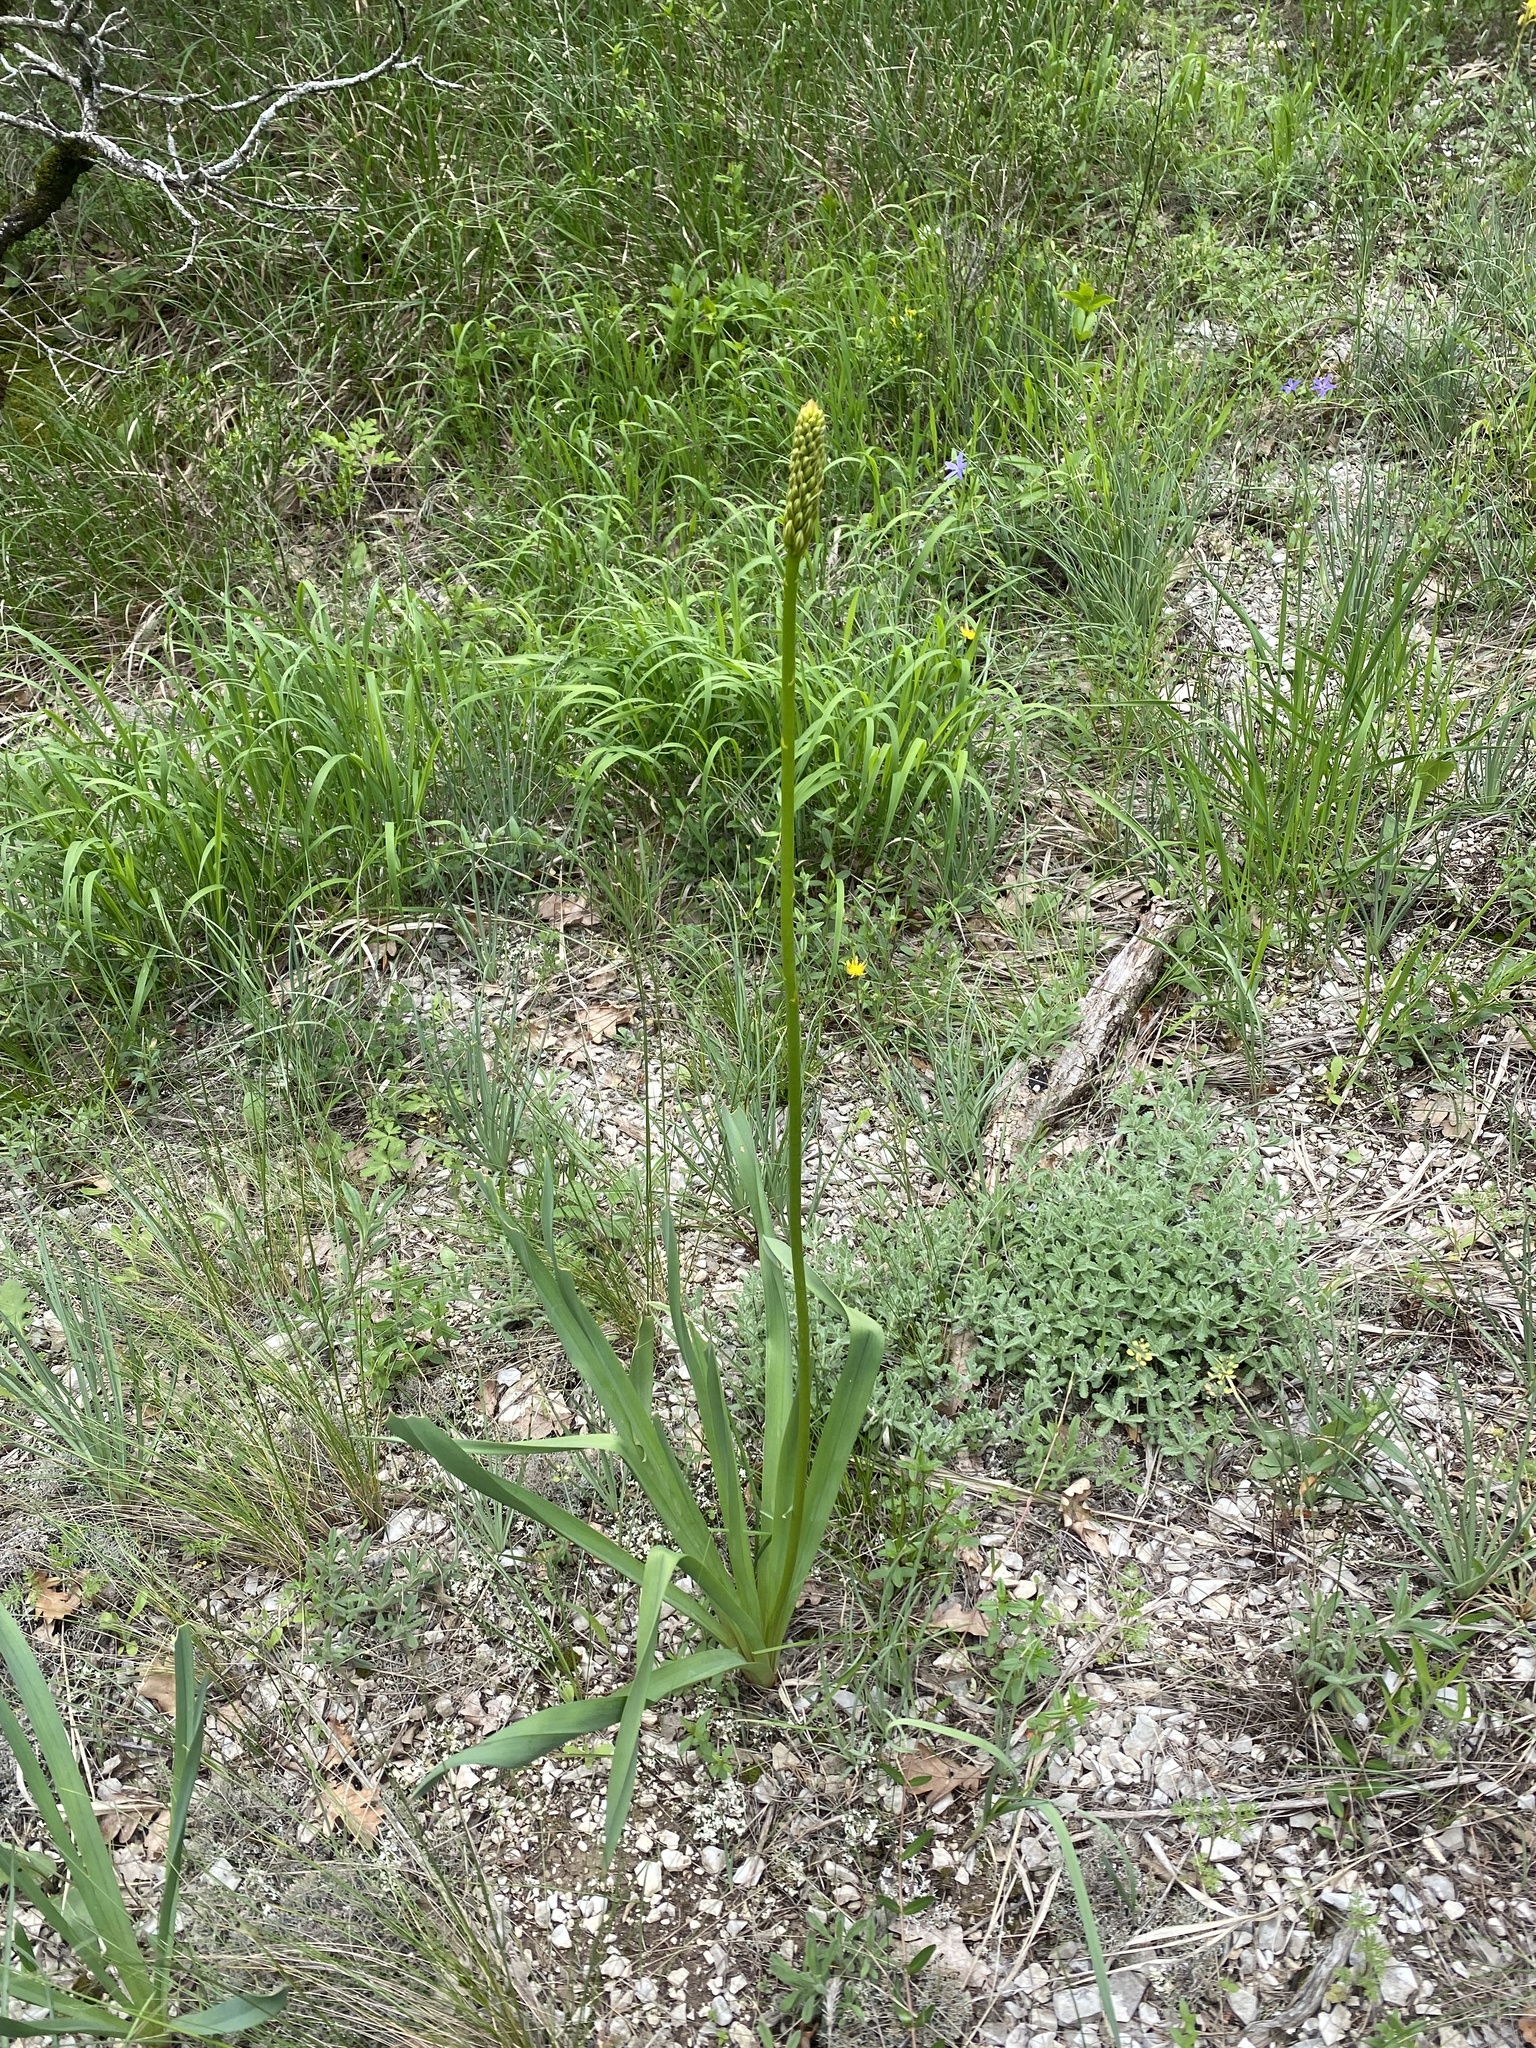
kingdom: Plantae
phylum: Tracheophyta
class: Liliopsida
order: Asparagales
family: Asphodelaceae
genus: Eremurus
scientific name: Eremurus spectabilis
